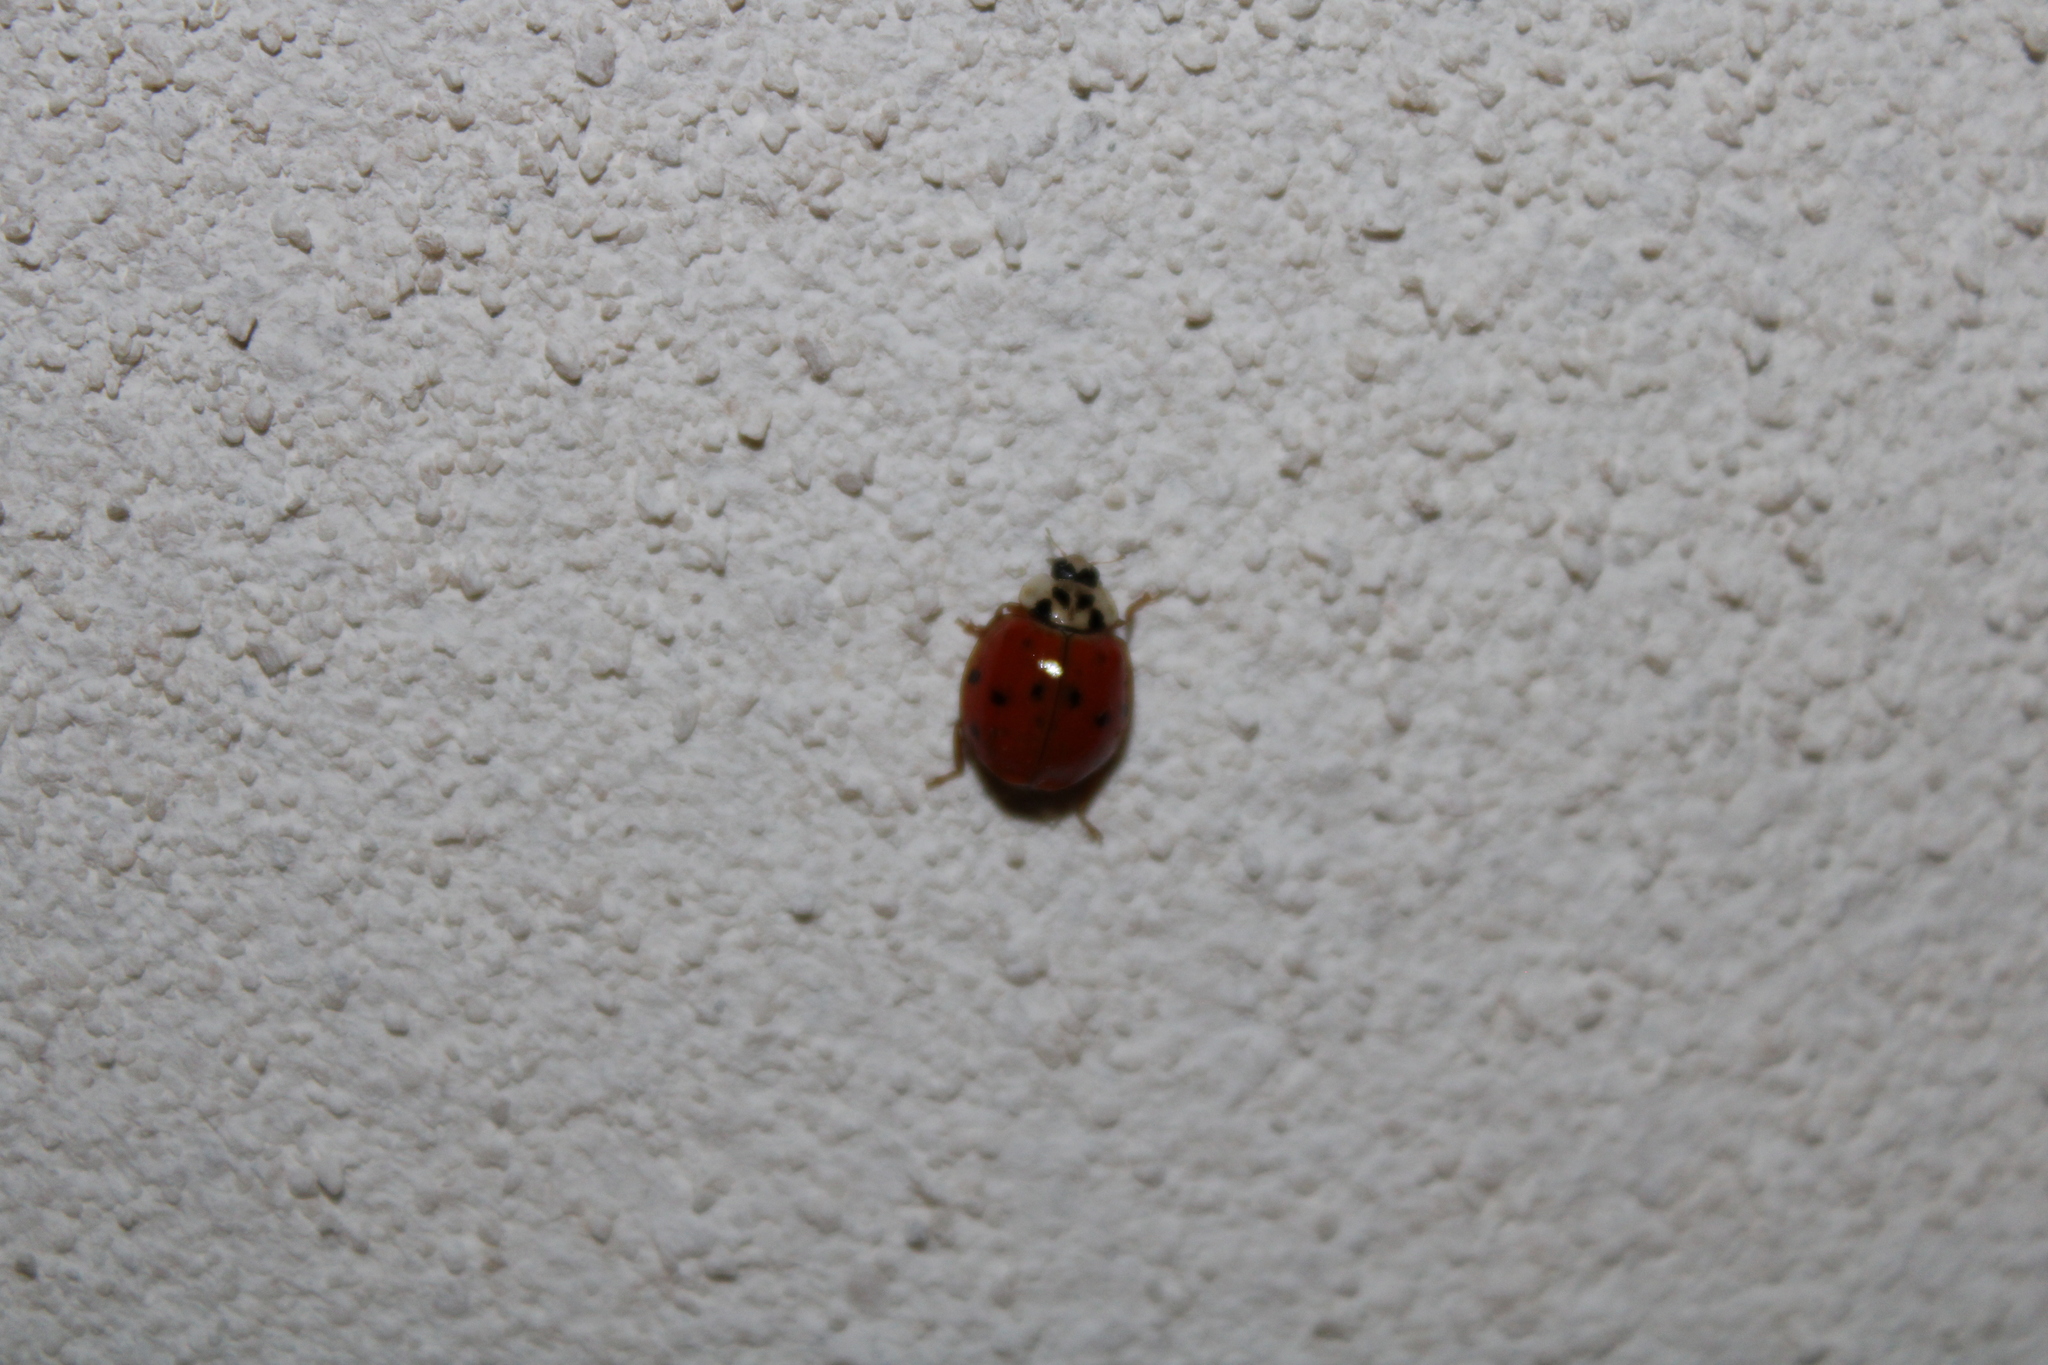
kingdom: Animalia
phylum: Arthropoda
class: Insecta
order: Coleoptera
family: Coccinellidae
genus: Harmonia
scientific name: Harmonia axyridis
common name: Harlequin ladybird
